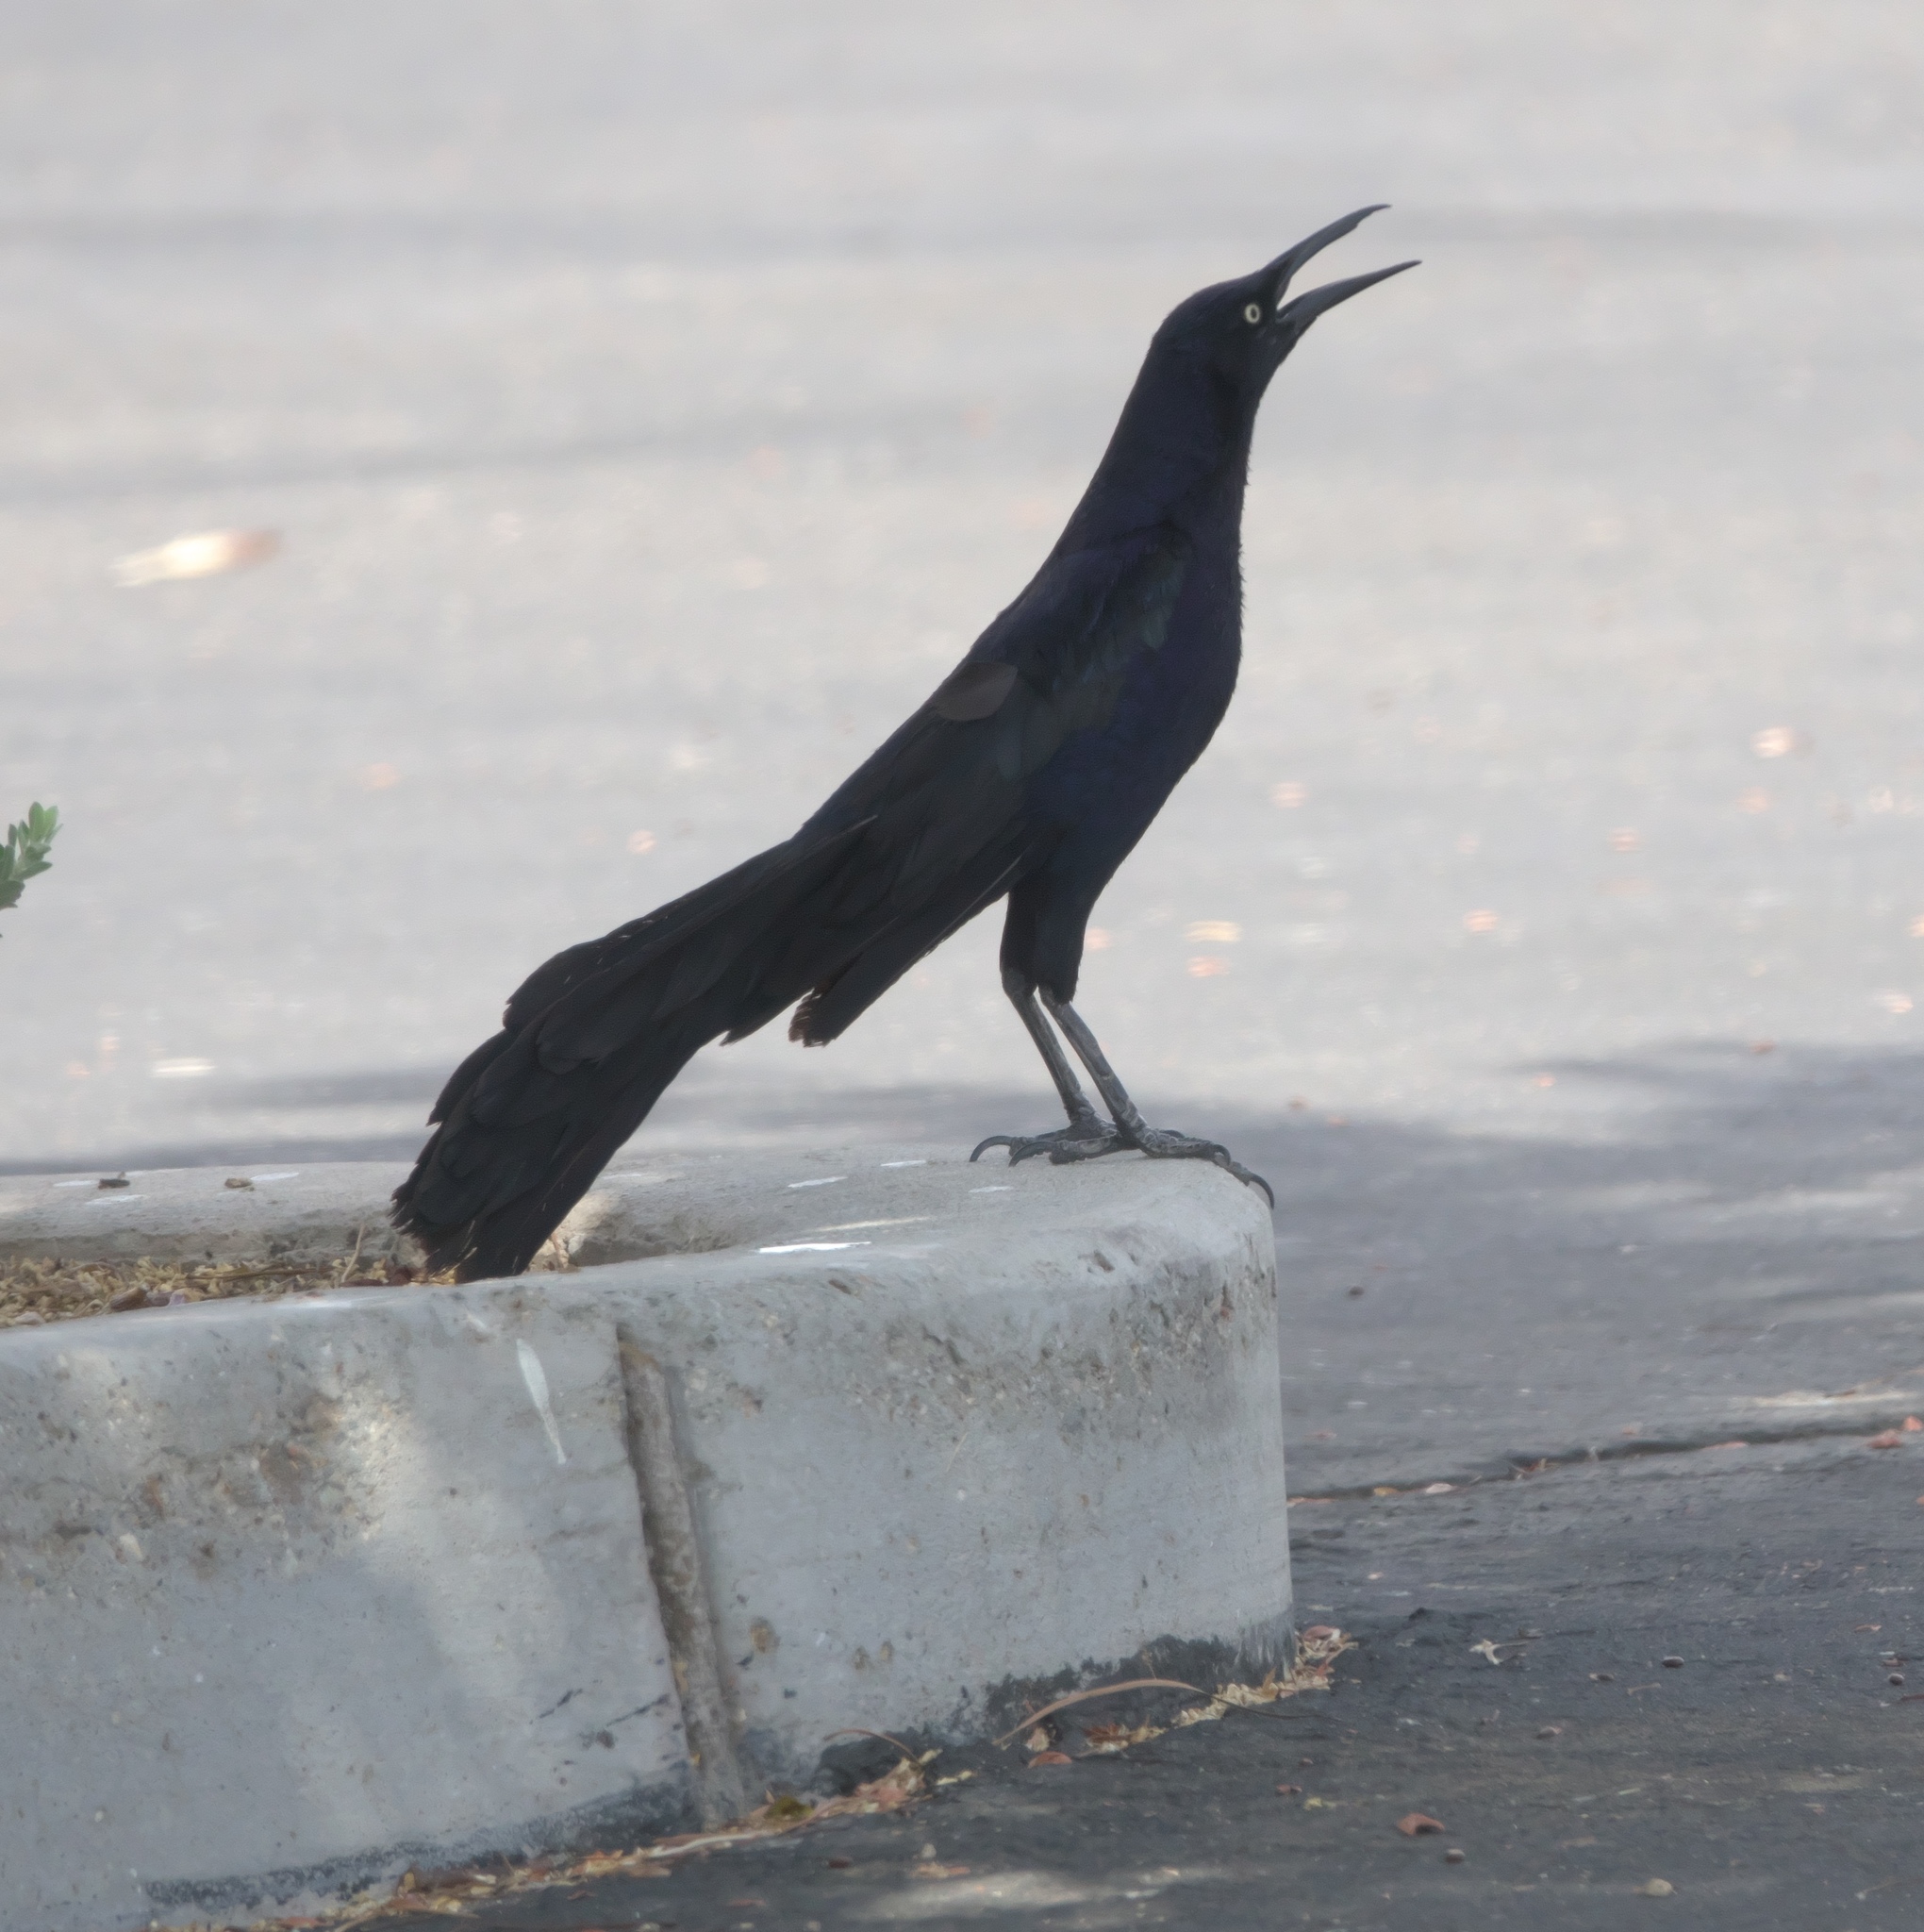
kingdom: Animalia
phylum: Chordata
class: Aves
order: Passeriformes
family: Icteridae
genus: Quiscalus
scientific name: Quiscalus mexicanus
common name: Great-tailed grackle
